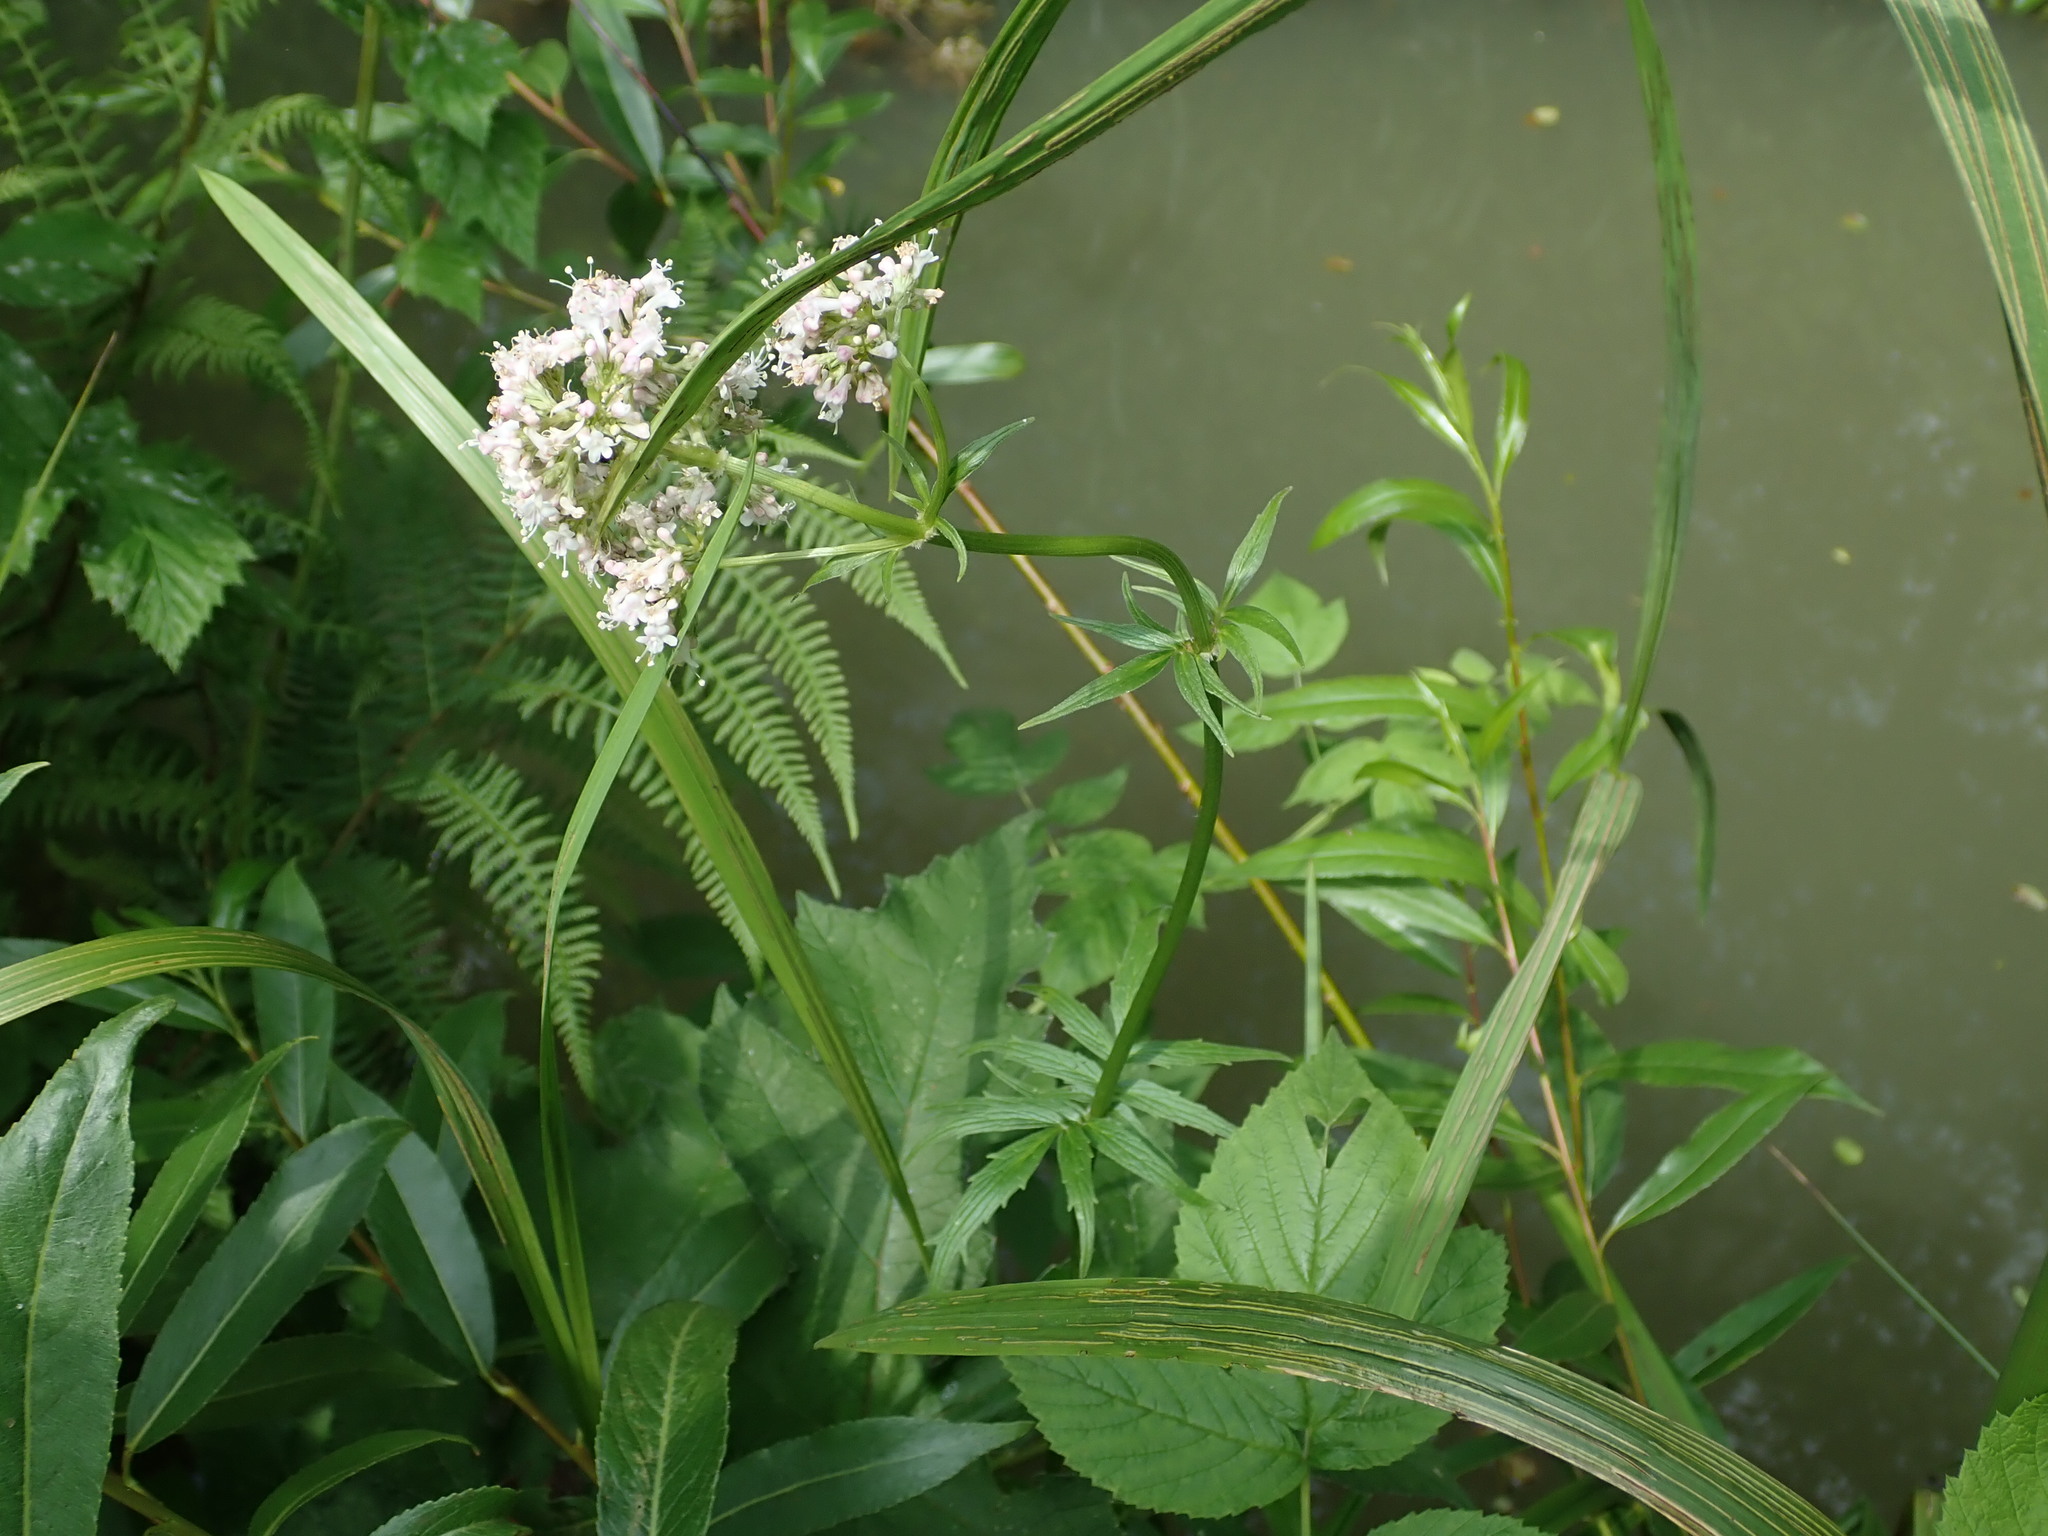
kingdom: Plantae
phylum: Tracheophyta
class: Magnoliopsida
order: Dipsacales
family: Caprifoliaceae
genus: Valeriana
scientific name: Valeriana officinalis
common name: Common valerian
